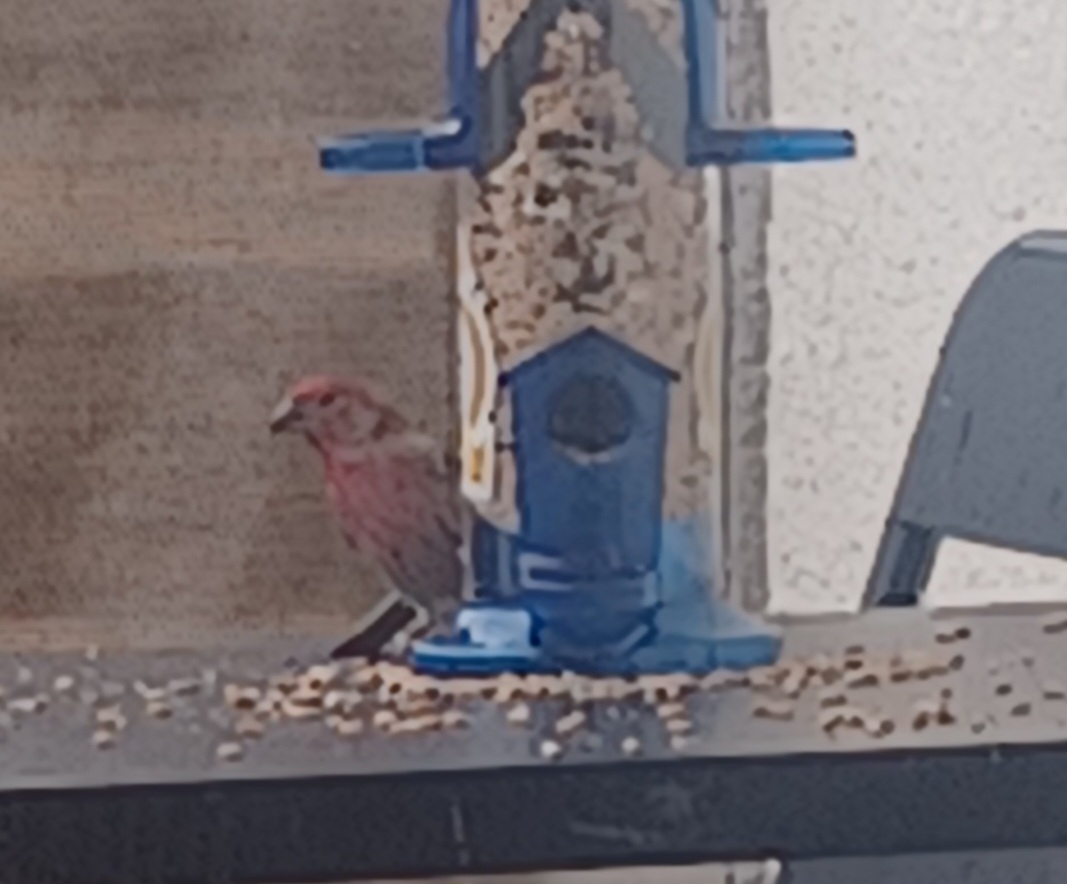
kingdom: Animalia
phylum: Chordata
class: Aves
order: Passeriformes
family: Fringillidae
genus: Haemorhous
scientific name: Haemorhous mexicanus
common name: House finch
